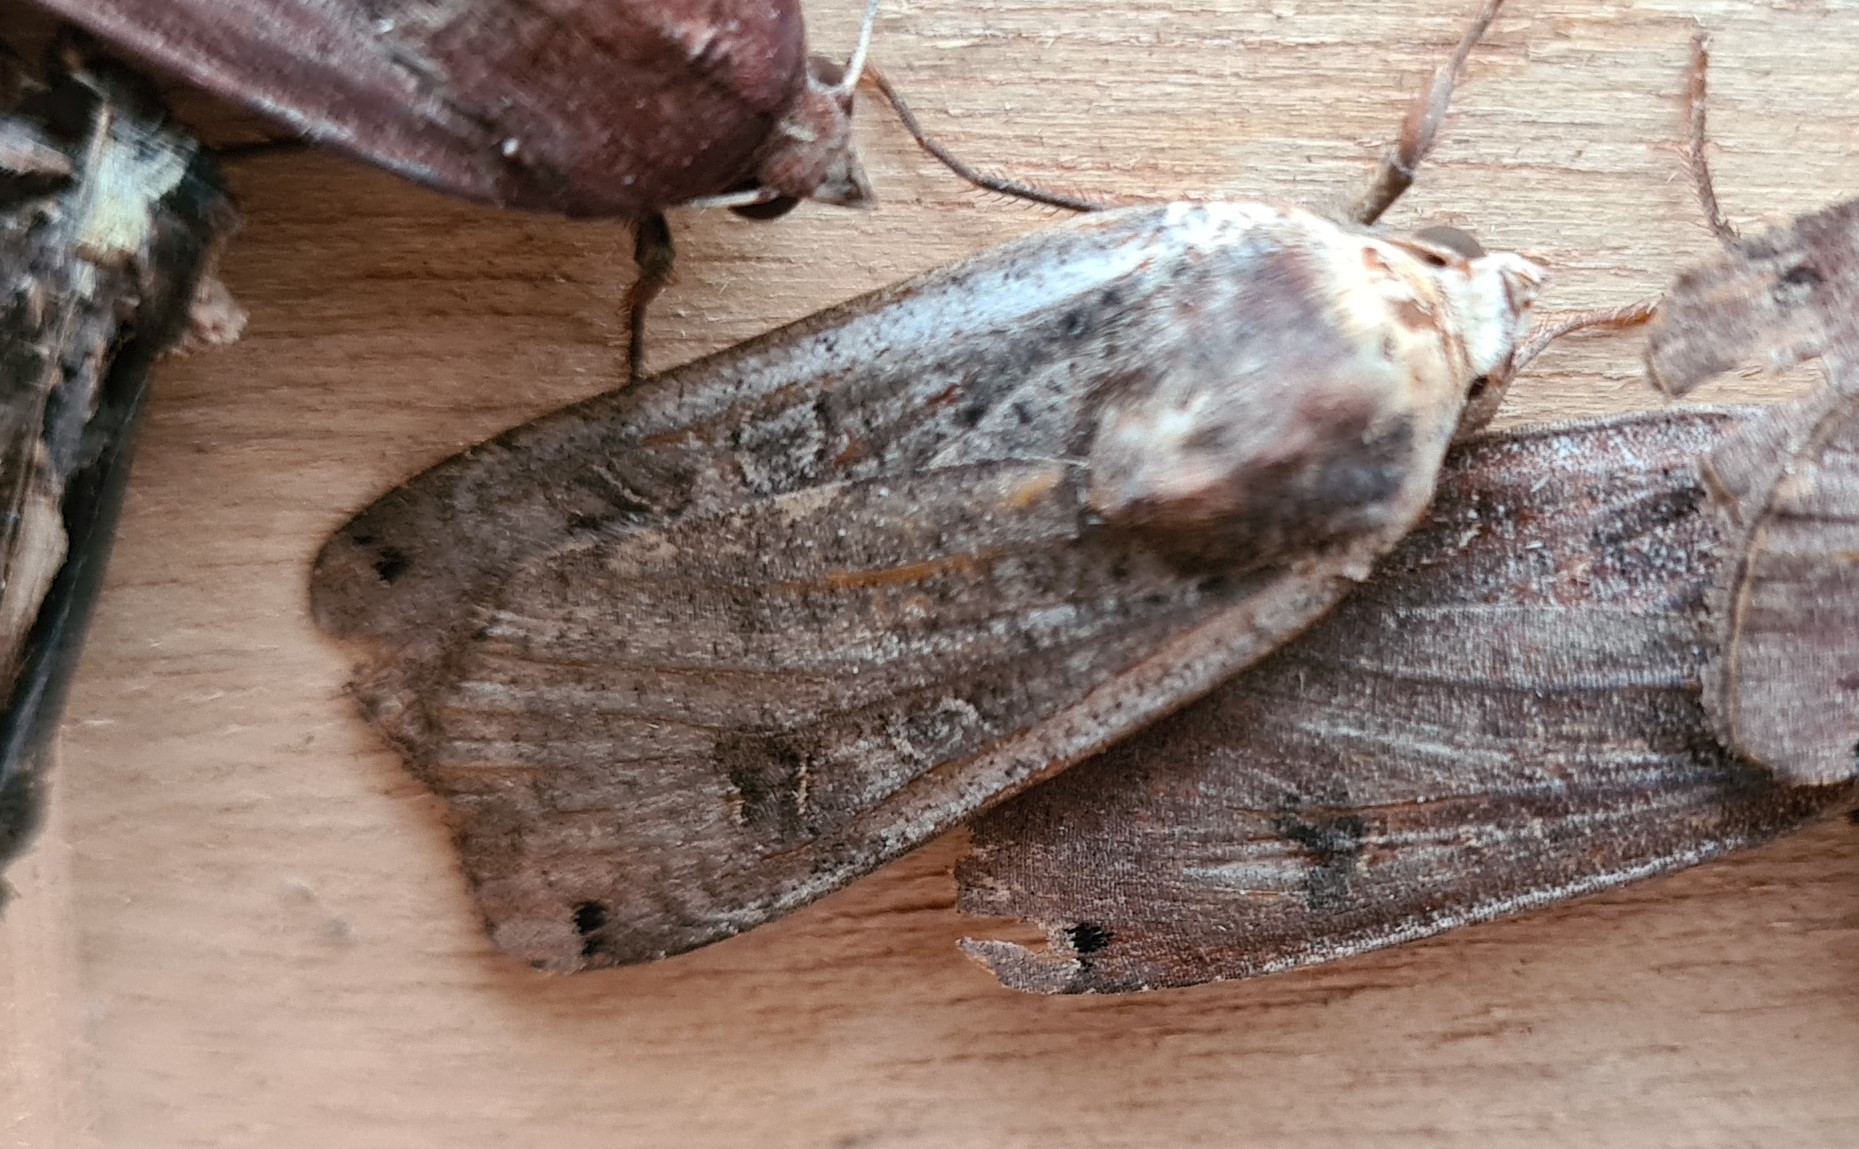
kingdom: Animalia
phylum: Arthropoda
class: Insecta
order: Lepidoptera
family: Noctuidae
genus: Noctua
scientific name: Noctua pronuba
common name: Large yellow underwing
